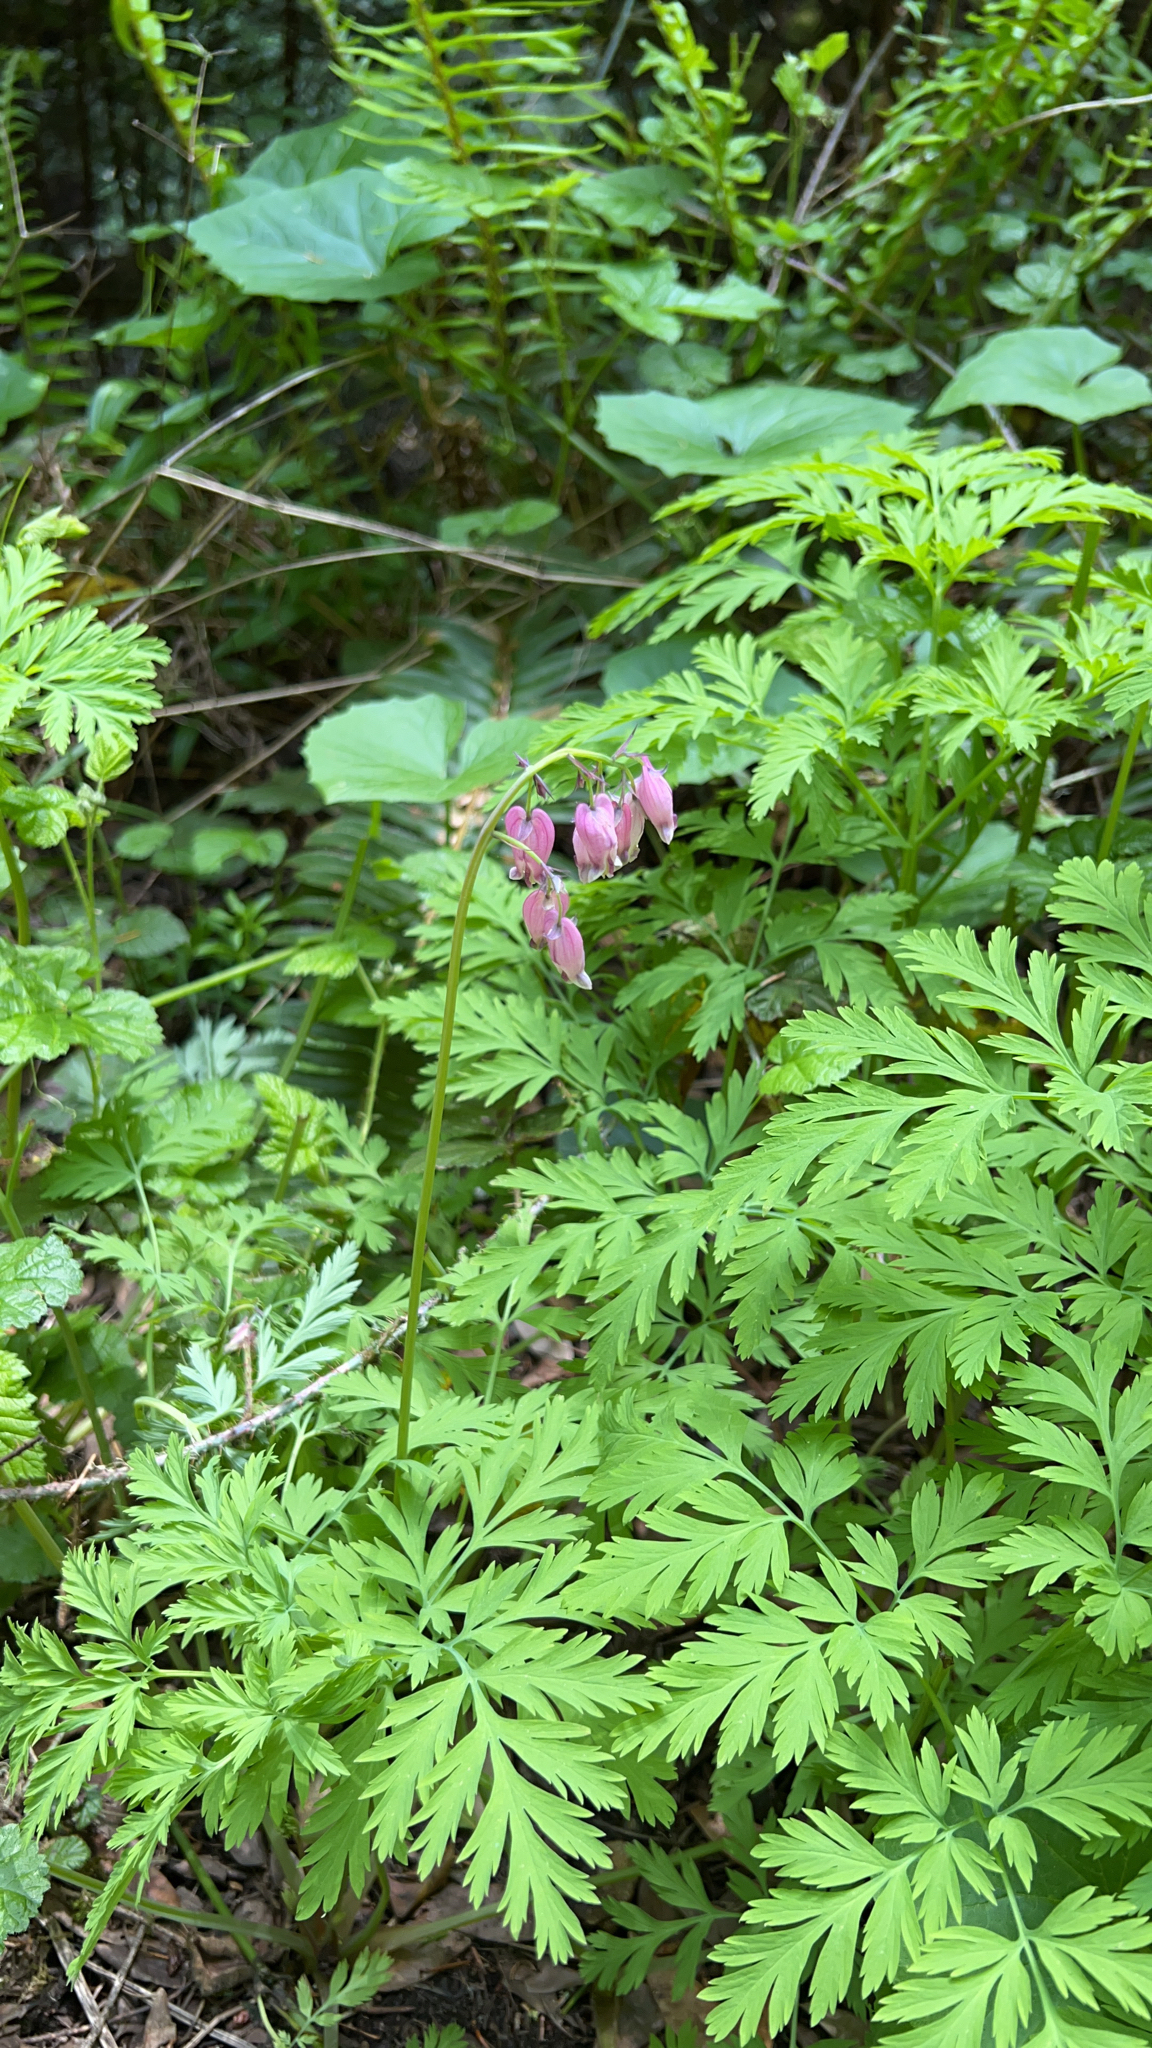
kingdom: Plantae
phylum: Tracheophyta
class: Magnoliopsida
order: Ranunculales
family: Papaveraceae
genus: Dicentra
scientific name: Dicentra formosa
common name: Bleeding-heart
